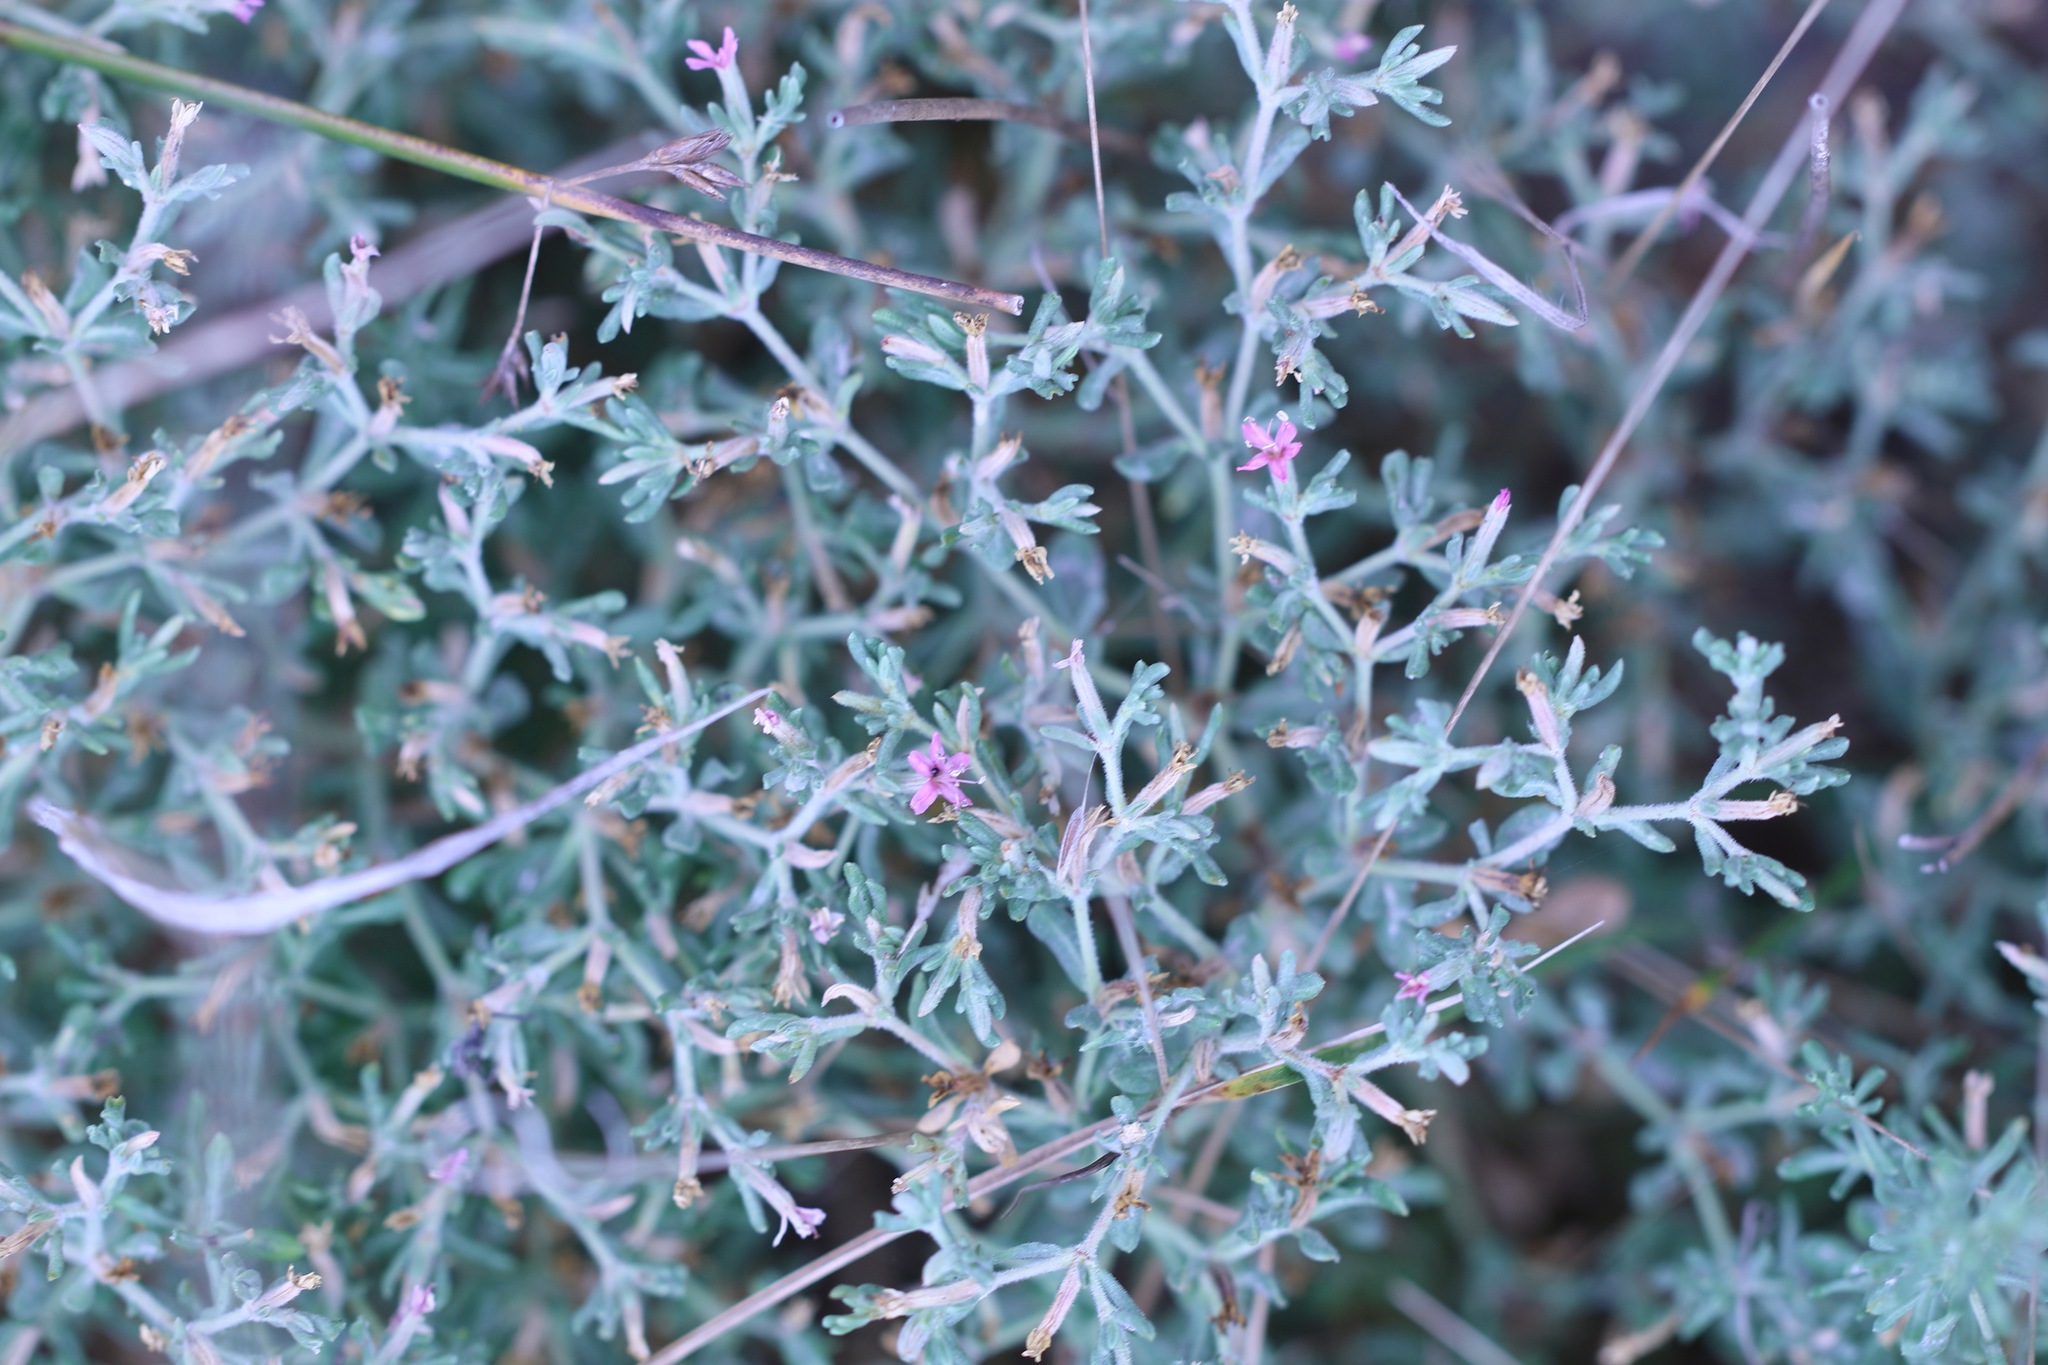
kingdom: Plantae
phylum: Tracheophyta
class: Magnoliopsida
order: Caryophyllales
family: Frankeniaceae
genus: Frankenia
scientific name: Frankenia salina
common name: Alkali seaheath
